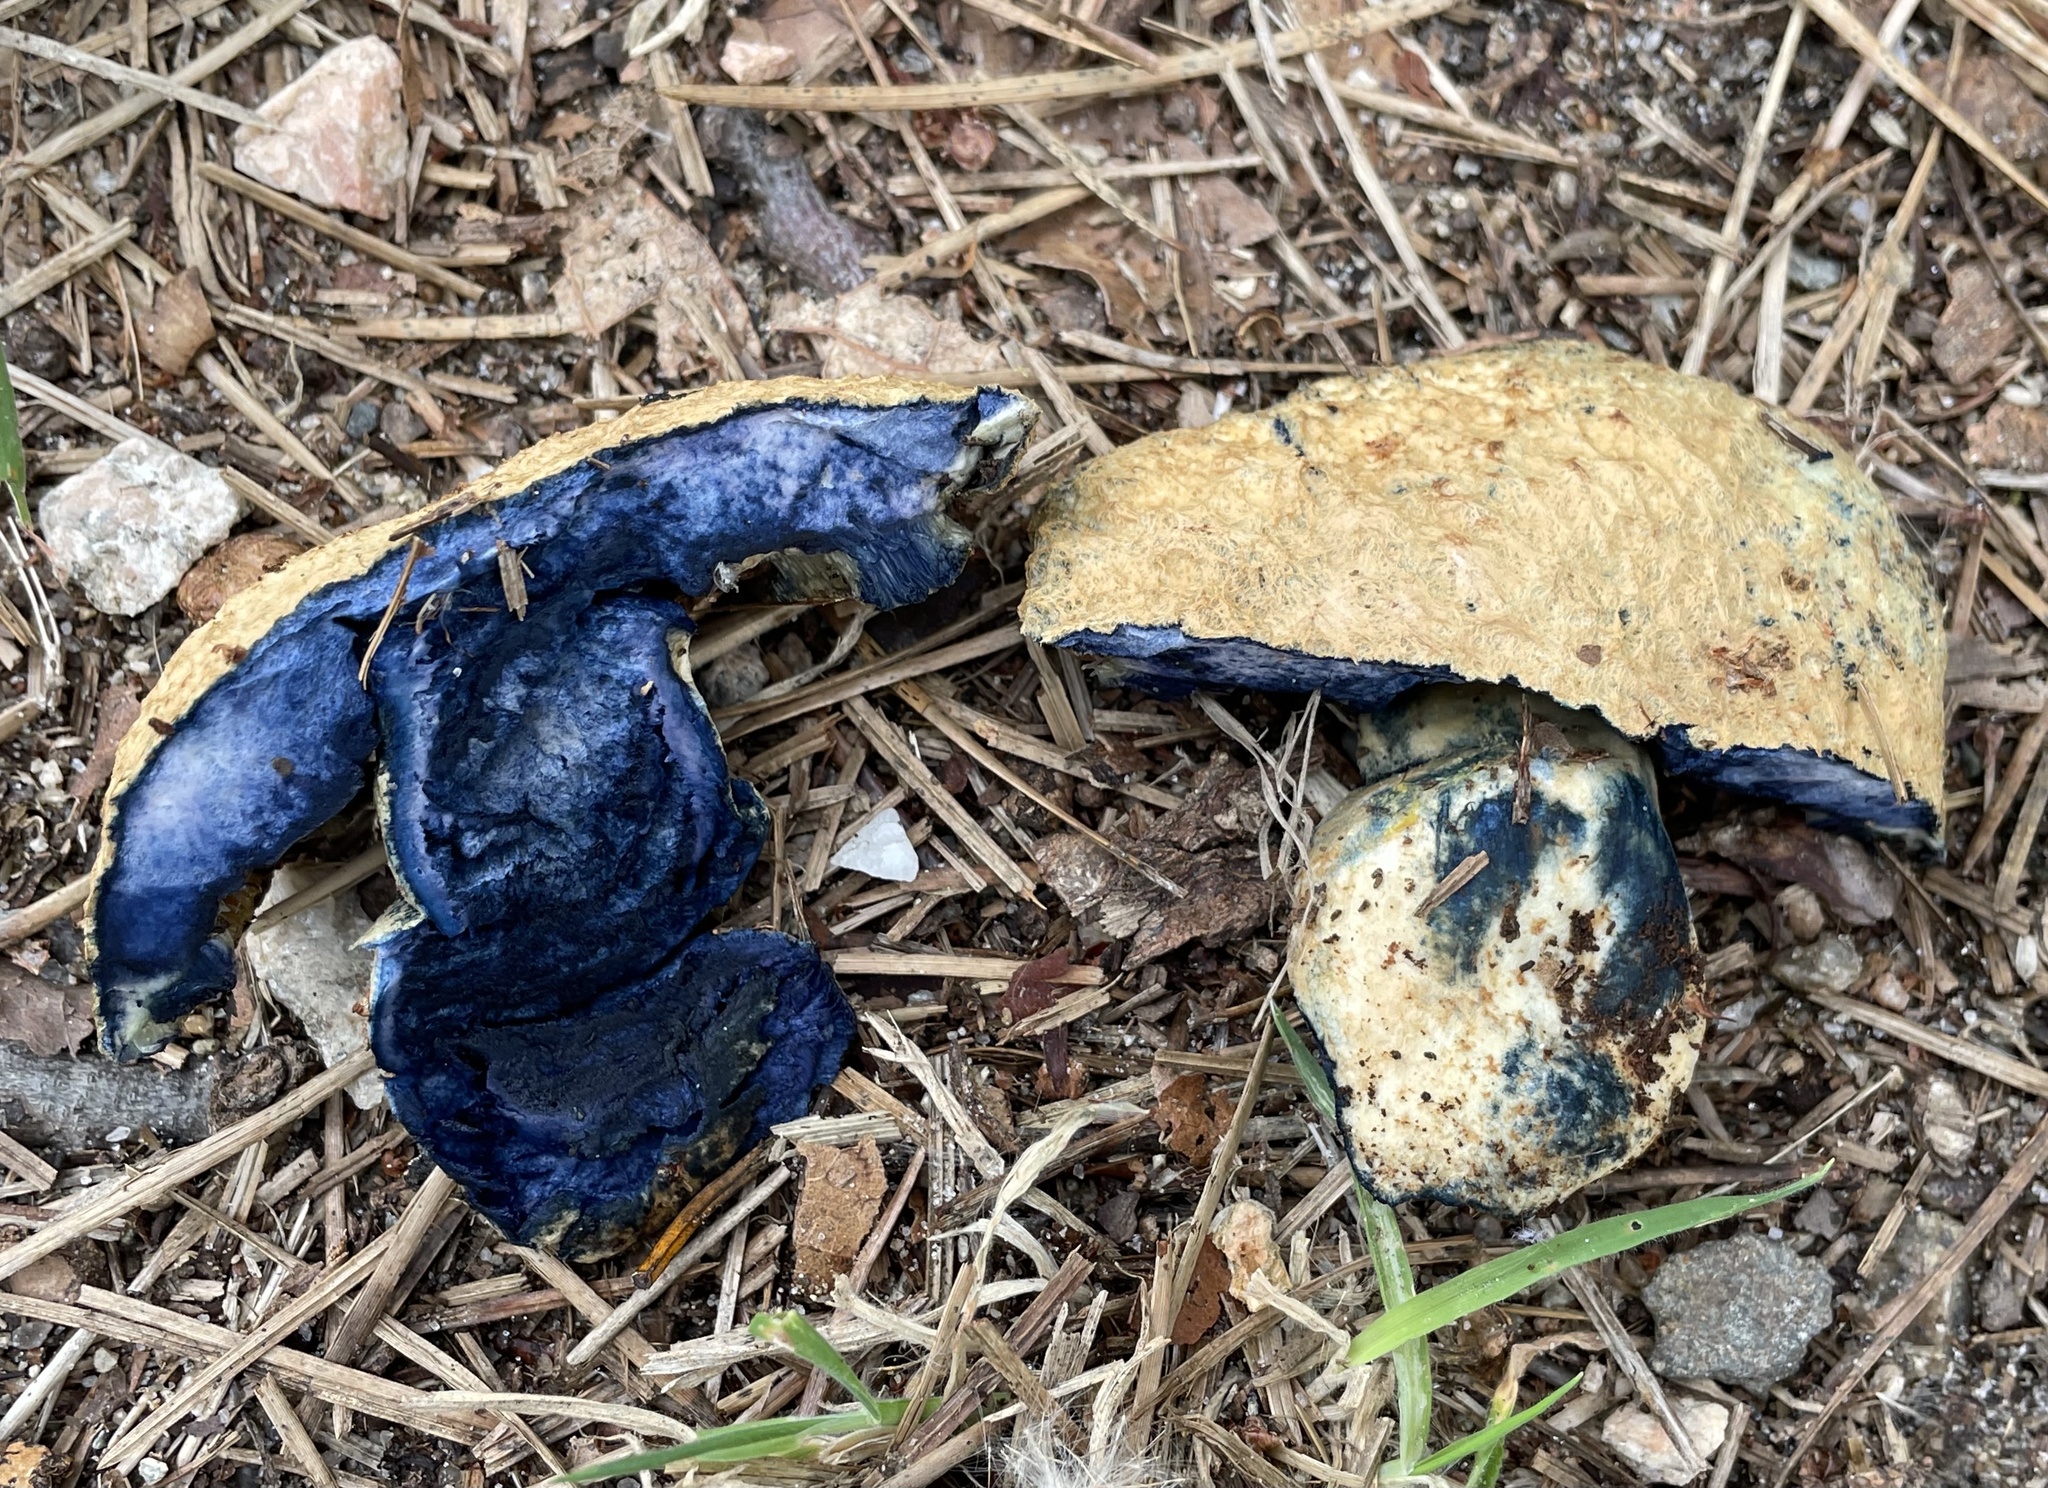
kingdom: Fungi
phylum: Basidiomycota
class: Agaricomycetes
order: Boletales
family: Gyroporaceae
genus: Gyroporus
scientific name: Gyroporus cyanescens
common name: Cornflower bolete
